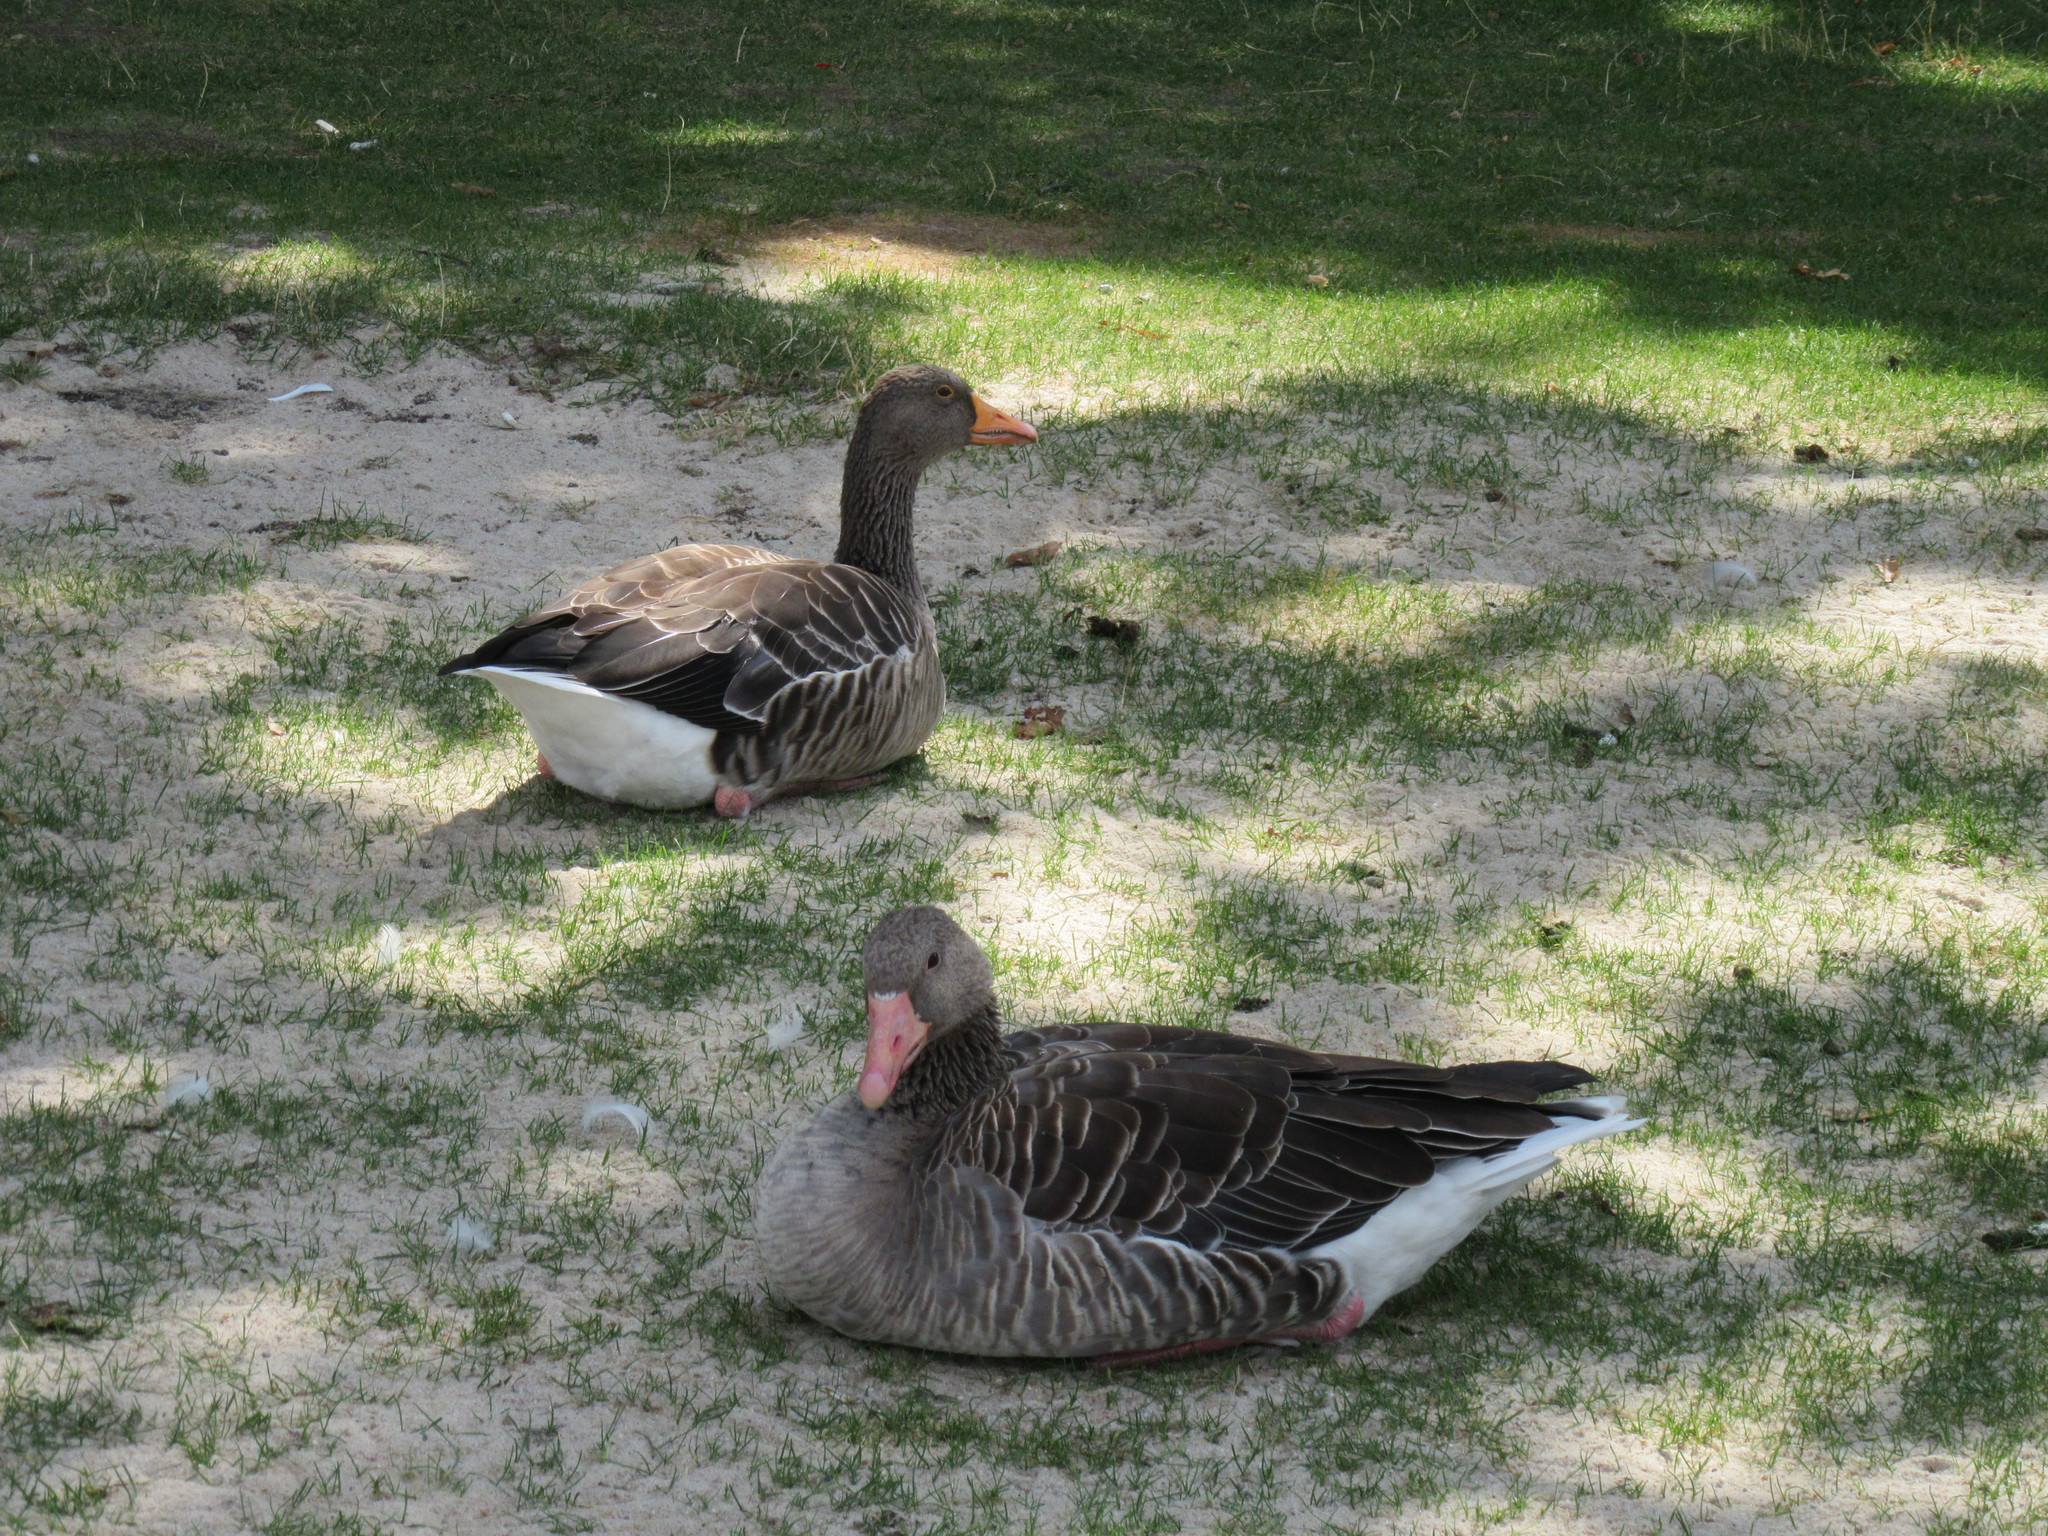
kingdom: Animalia
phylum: Chordata
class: Aves
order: Anseriformes
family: Anatidae
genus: Anser
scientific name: Anser anser
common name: Greylag goose
